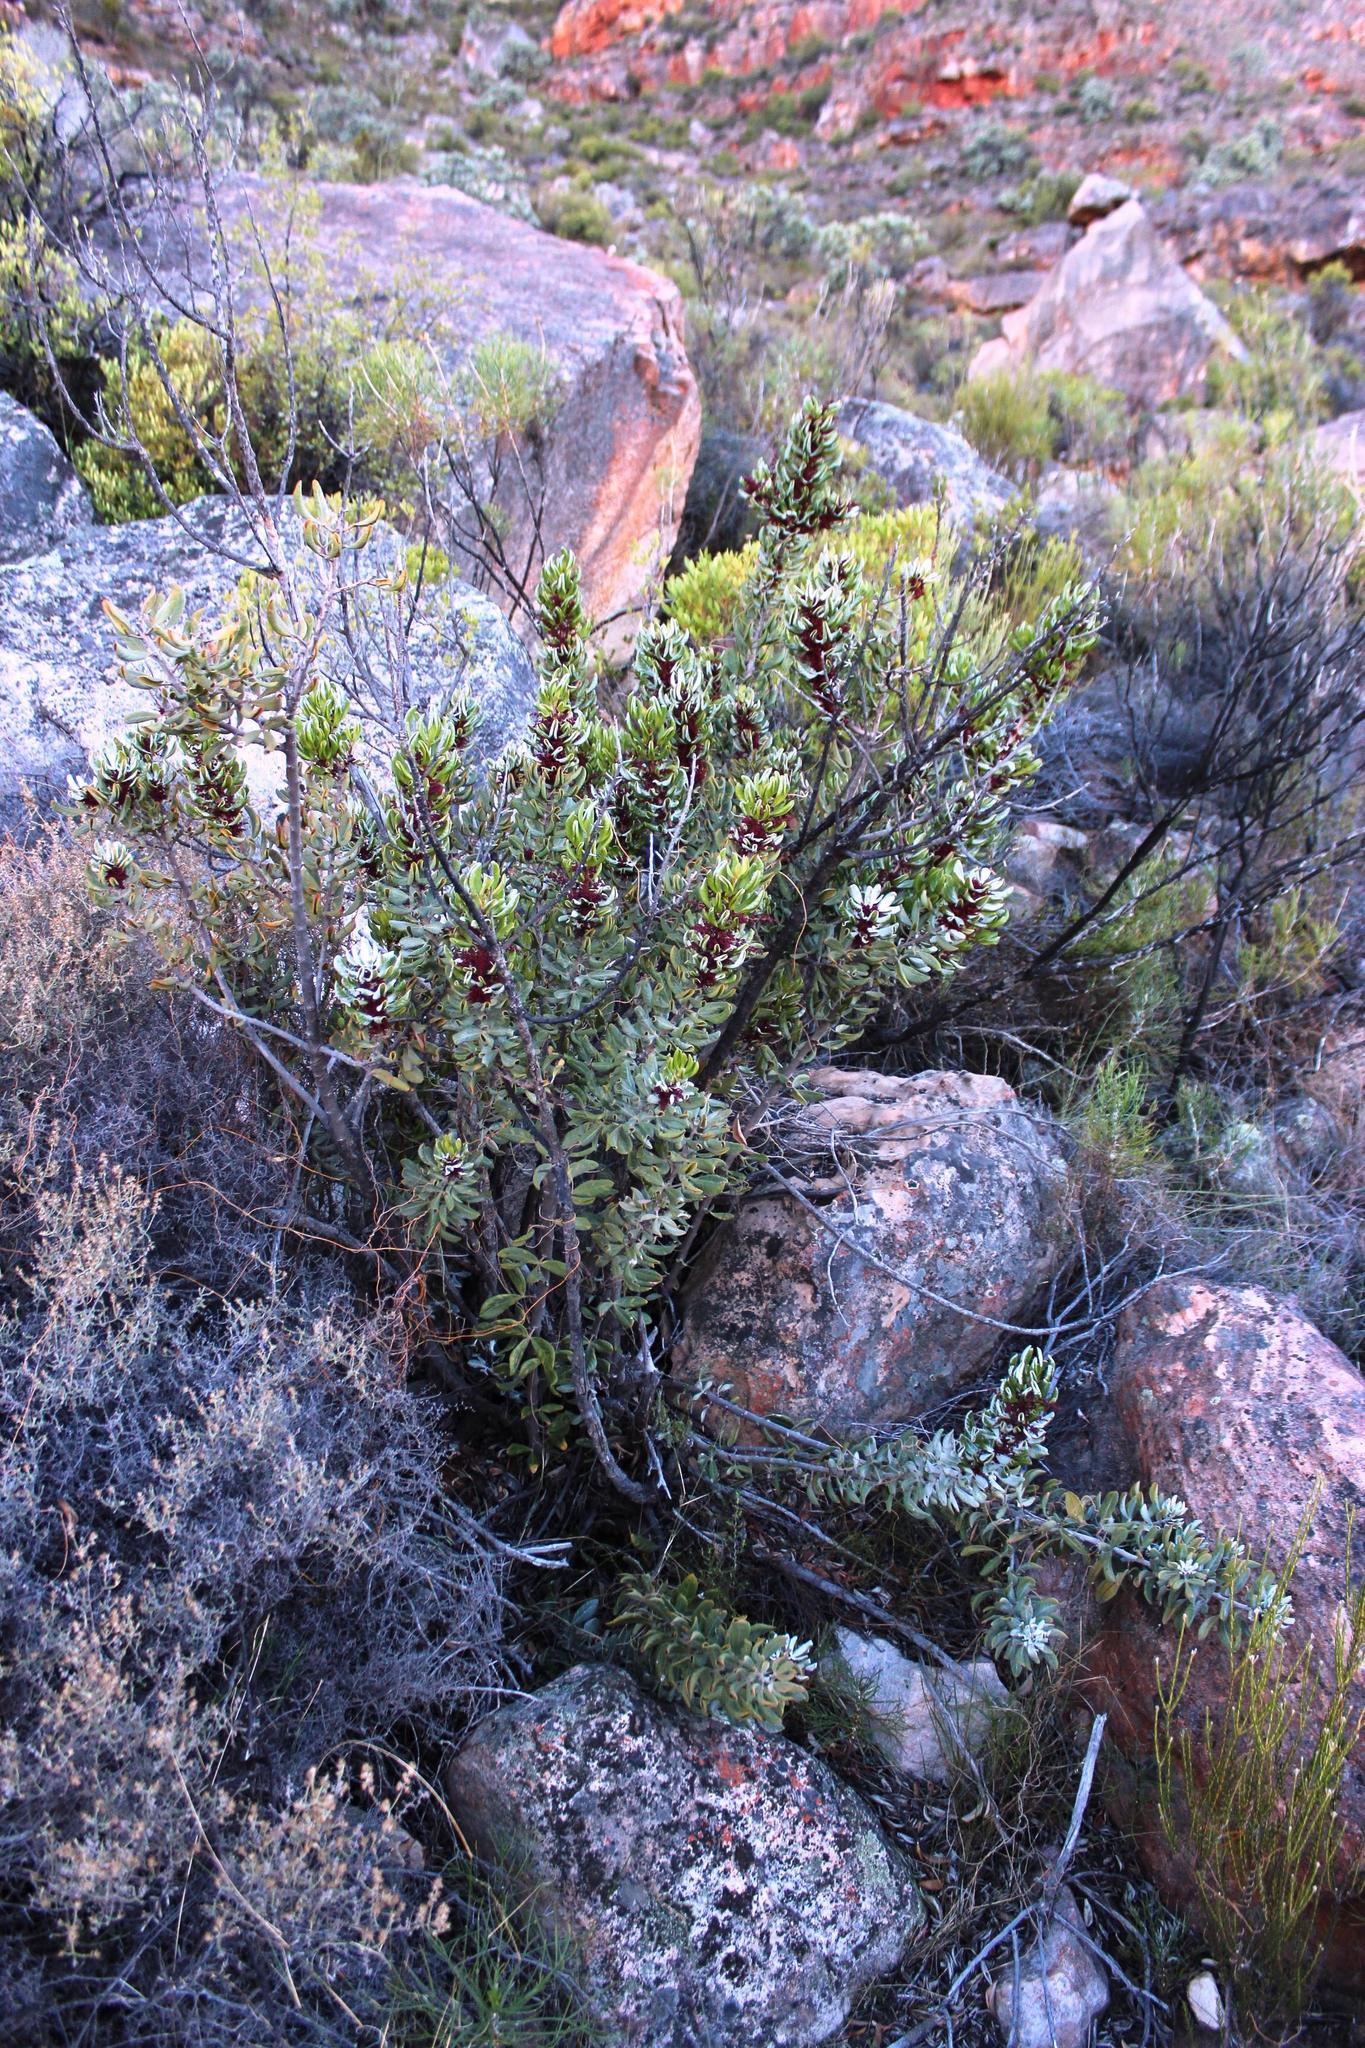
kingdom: Plantae
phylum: Tracheophyta
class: Magnoliopsida
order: Sapindales
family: Anacardiaceae
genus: Searsia
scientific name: Searsia scytophylla
